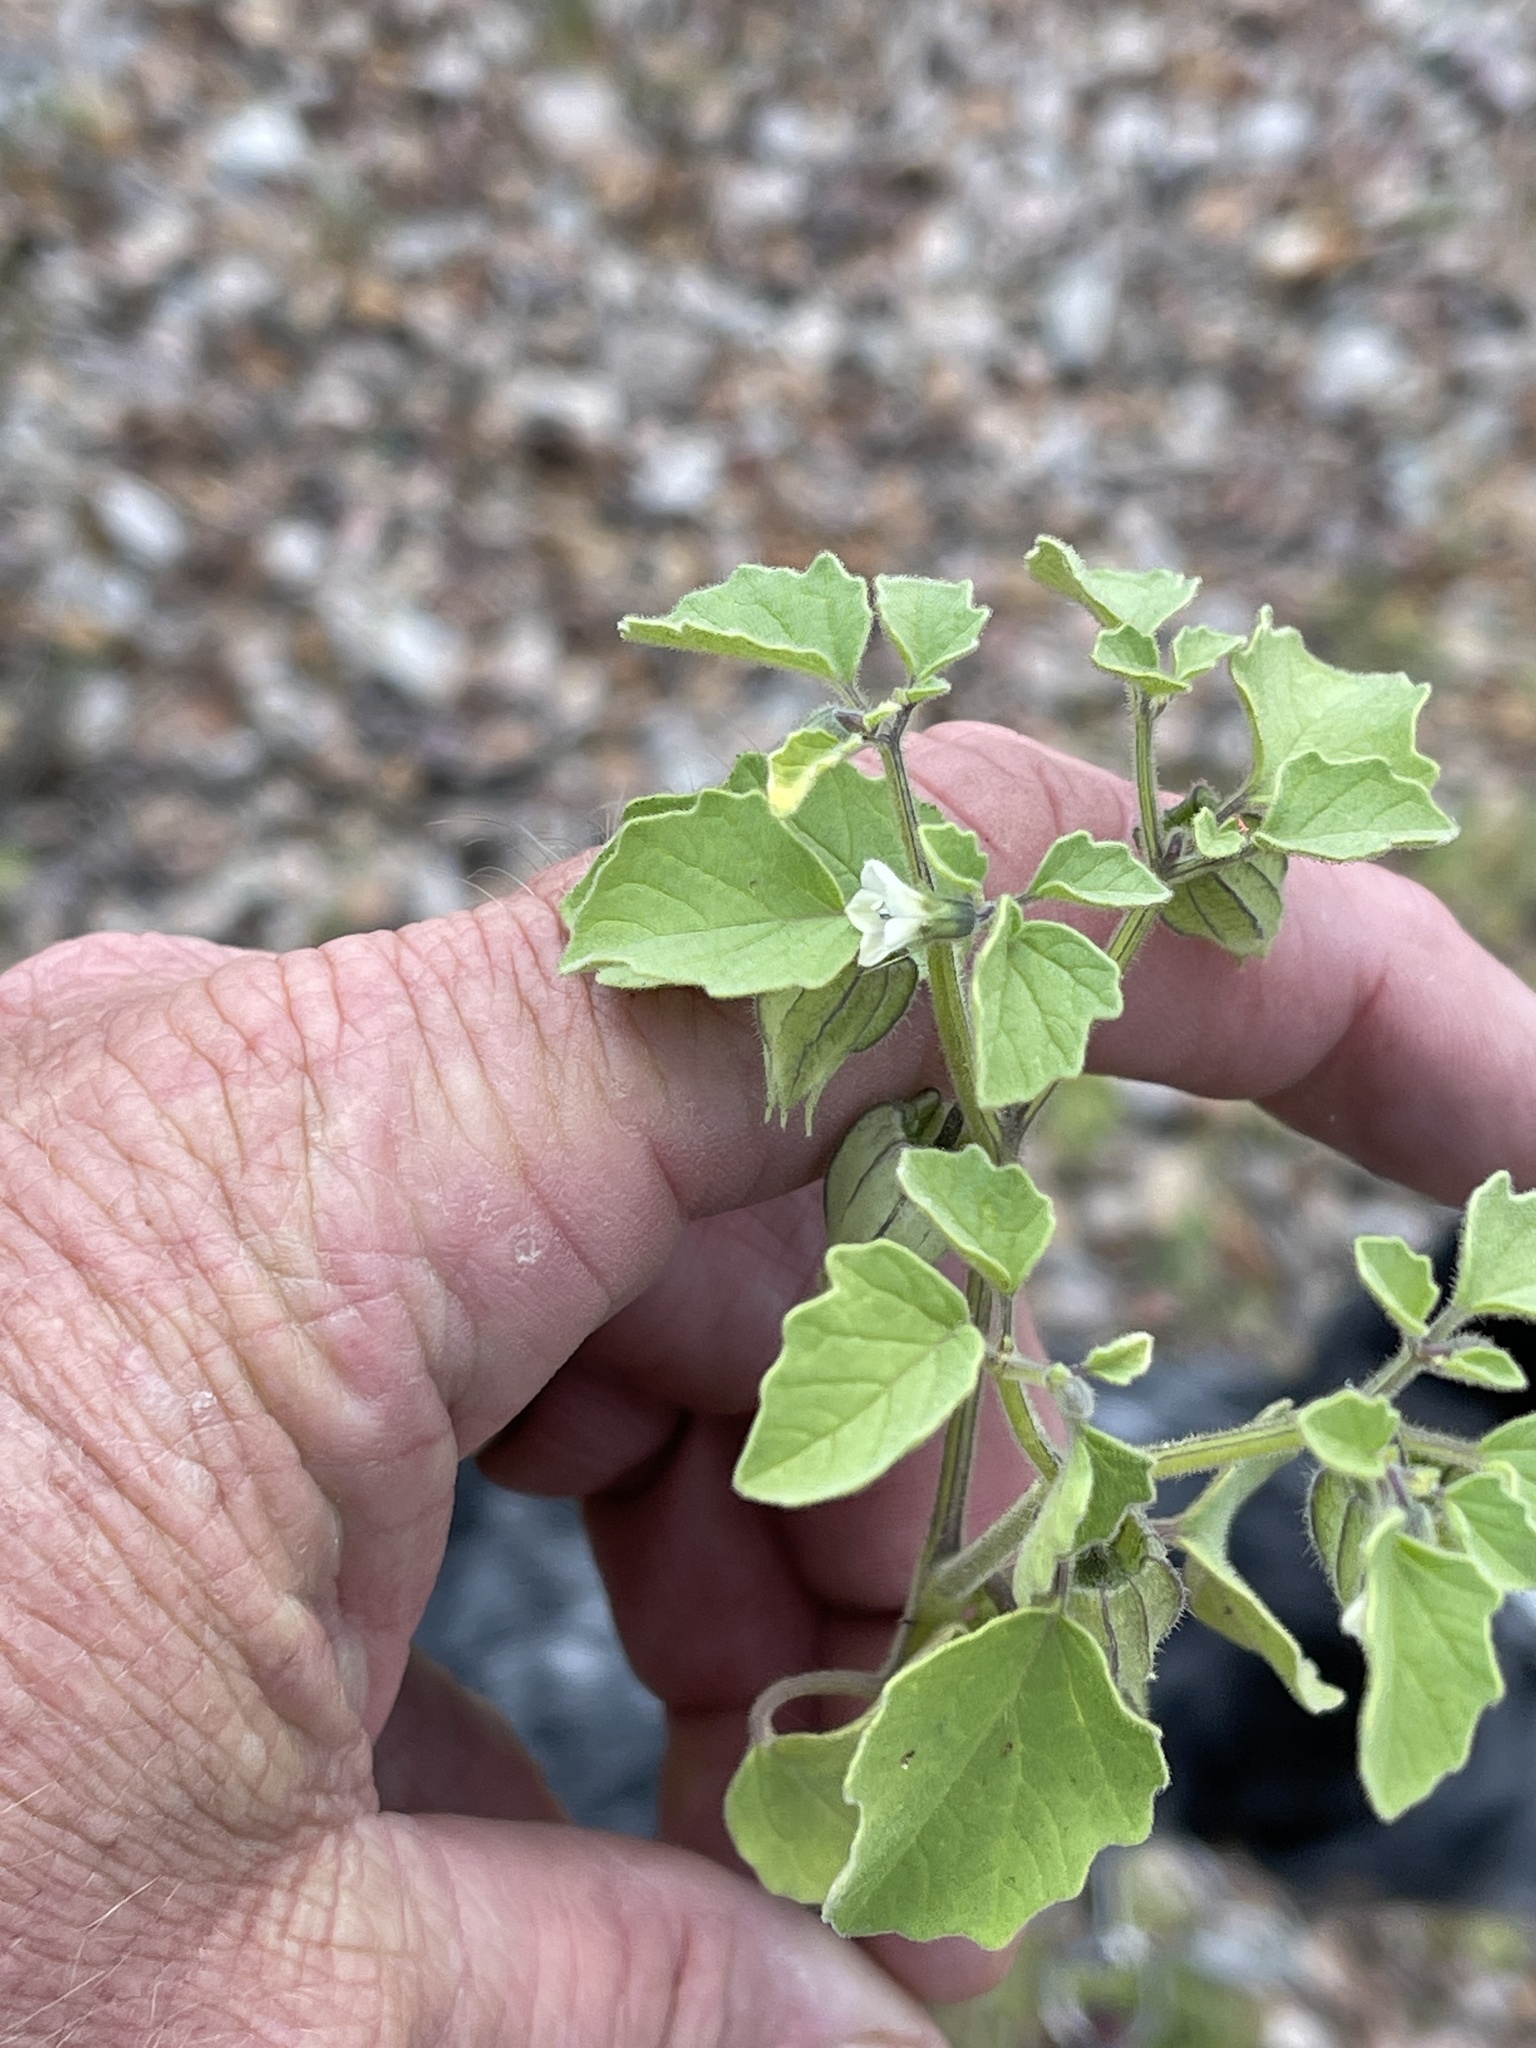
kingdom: Plantae
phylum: Tracheophyta
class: Magnoliopsida
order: Solanales
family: Solanaceae
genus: Physalis
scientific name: Physalis neomexicana
